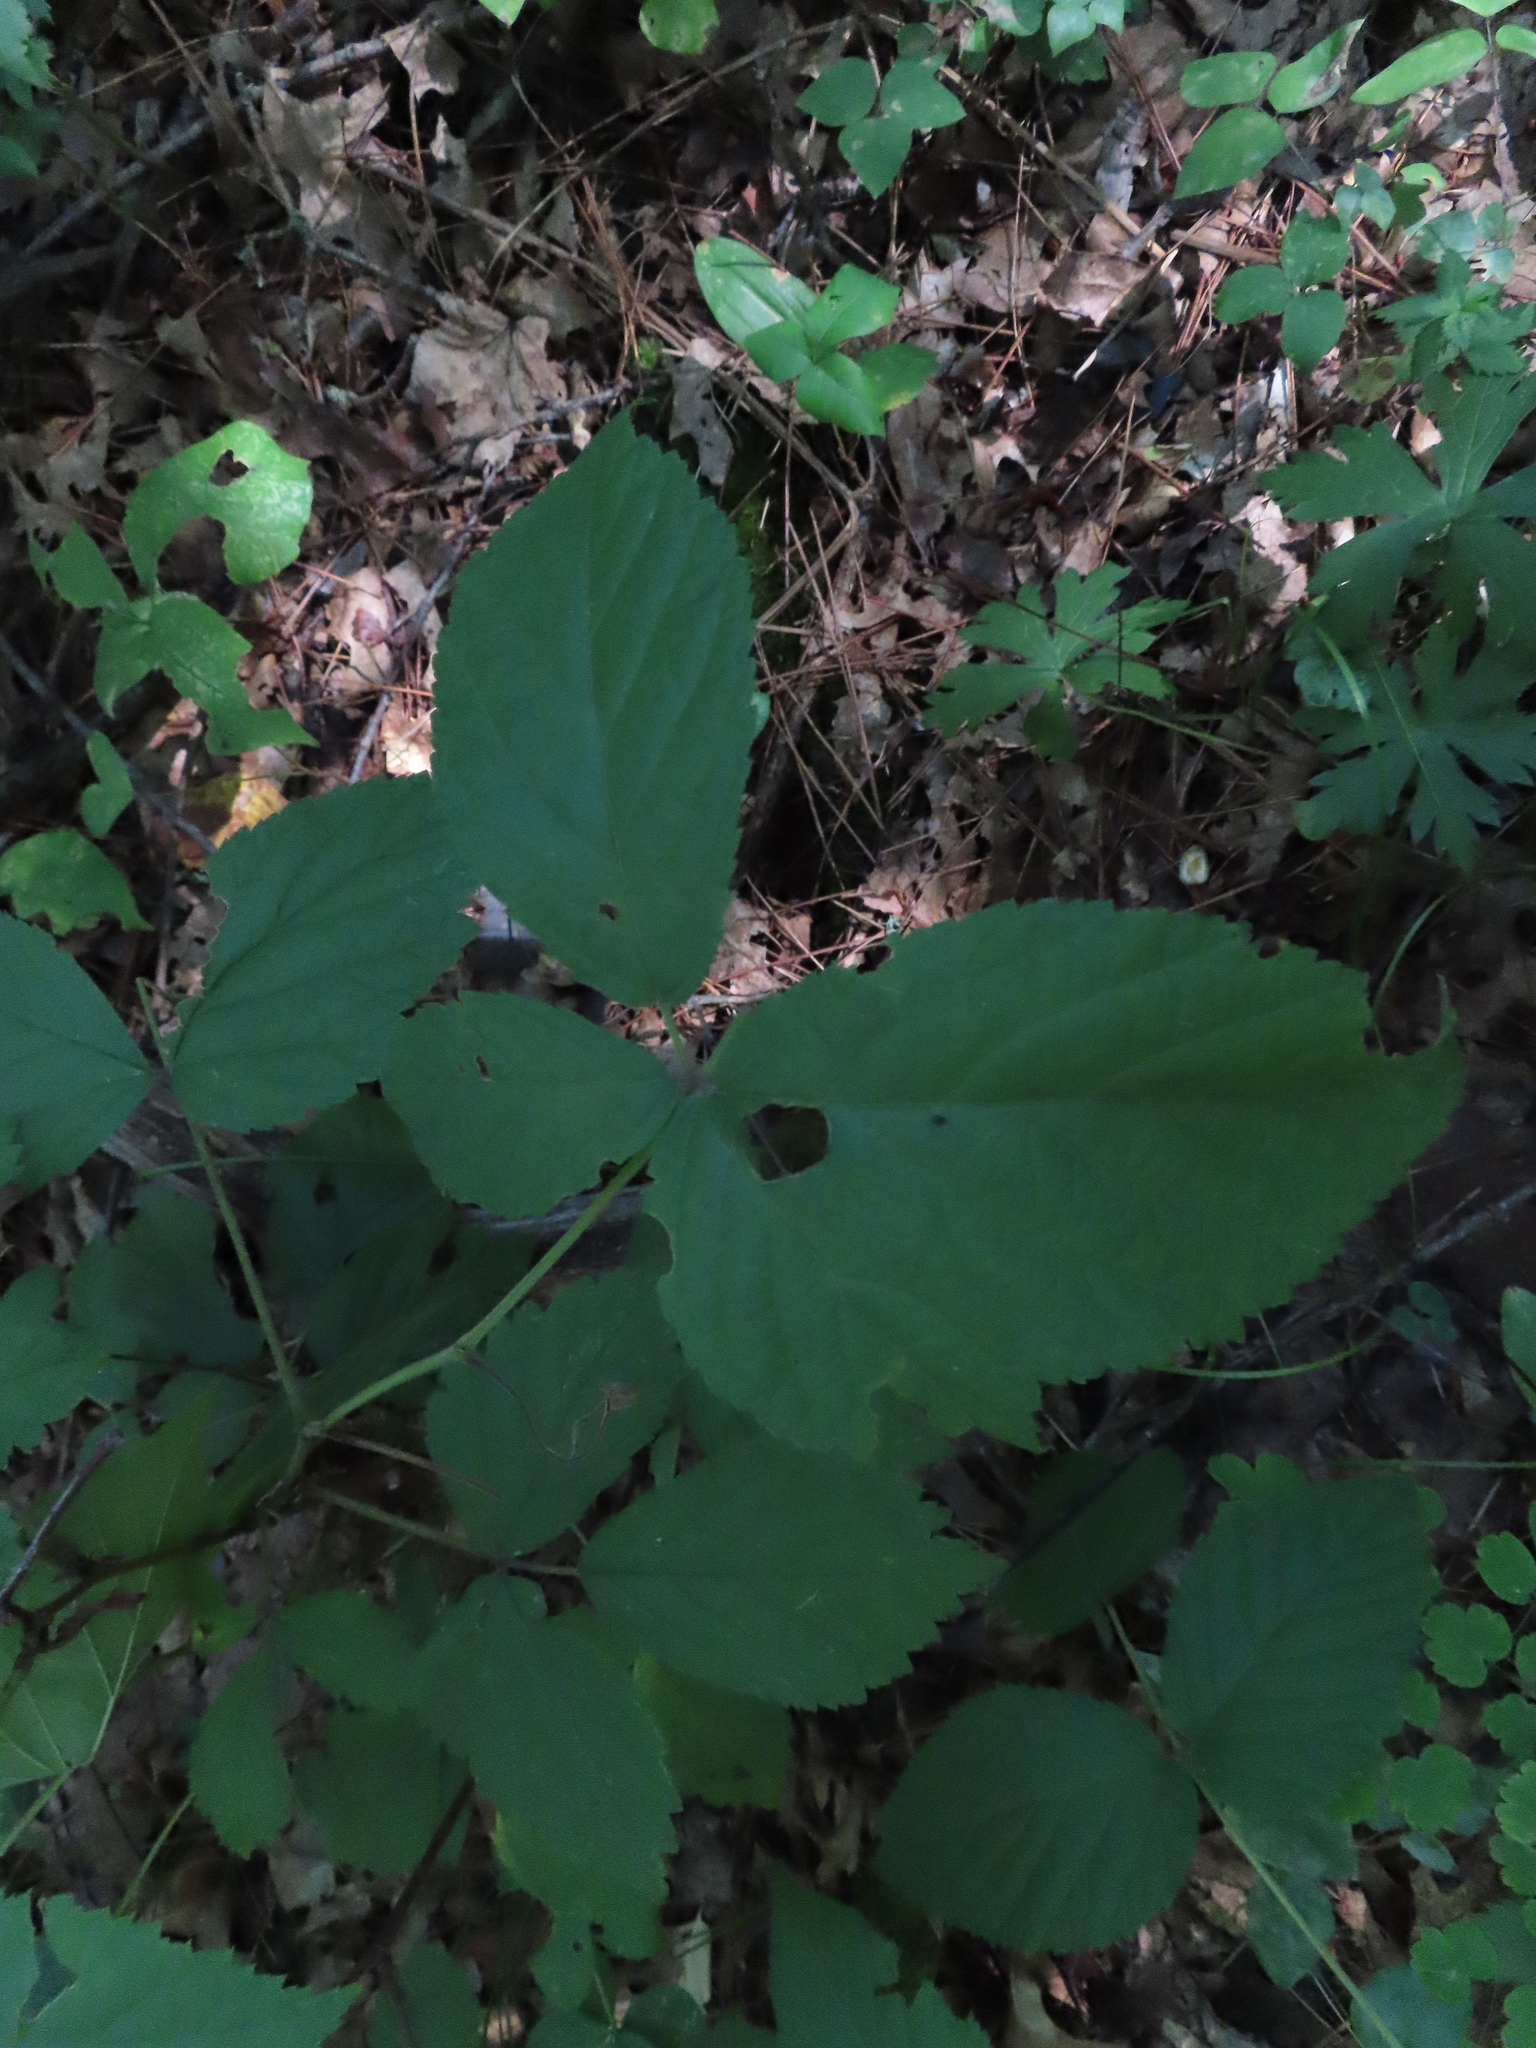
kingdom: Plantae
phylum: Tracheophyta
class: Magnoliopsida
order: Rosales
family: Rosaceae
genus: Rubus
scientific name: Rubus allegheniensis
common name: Allegheny blackberry
